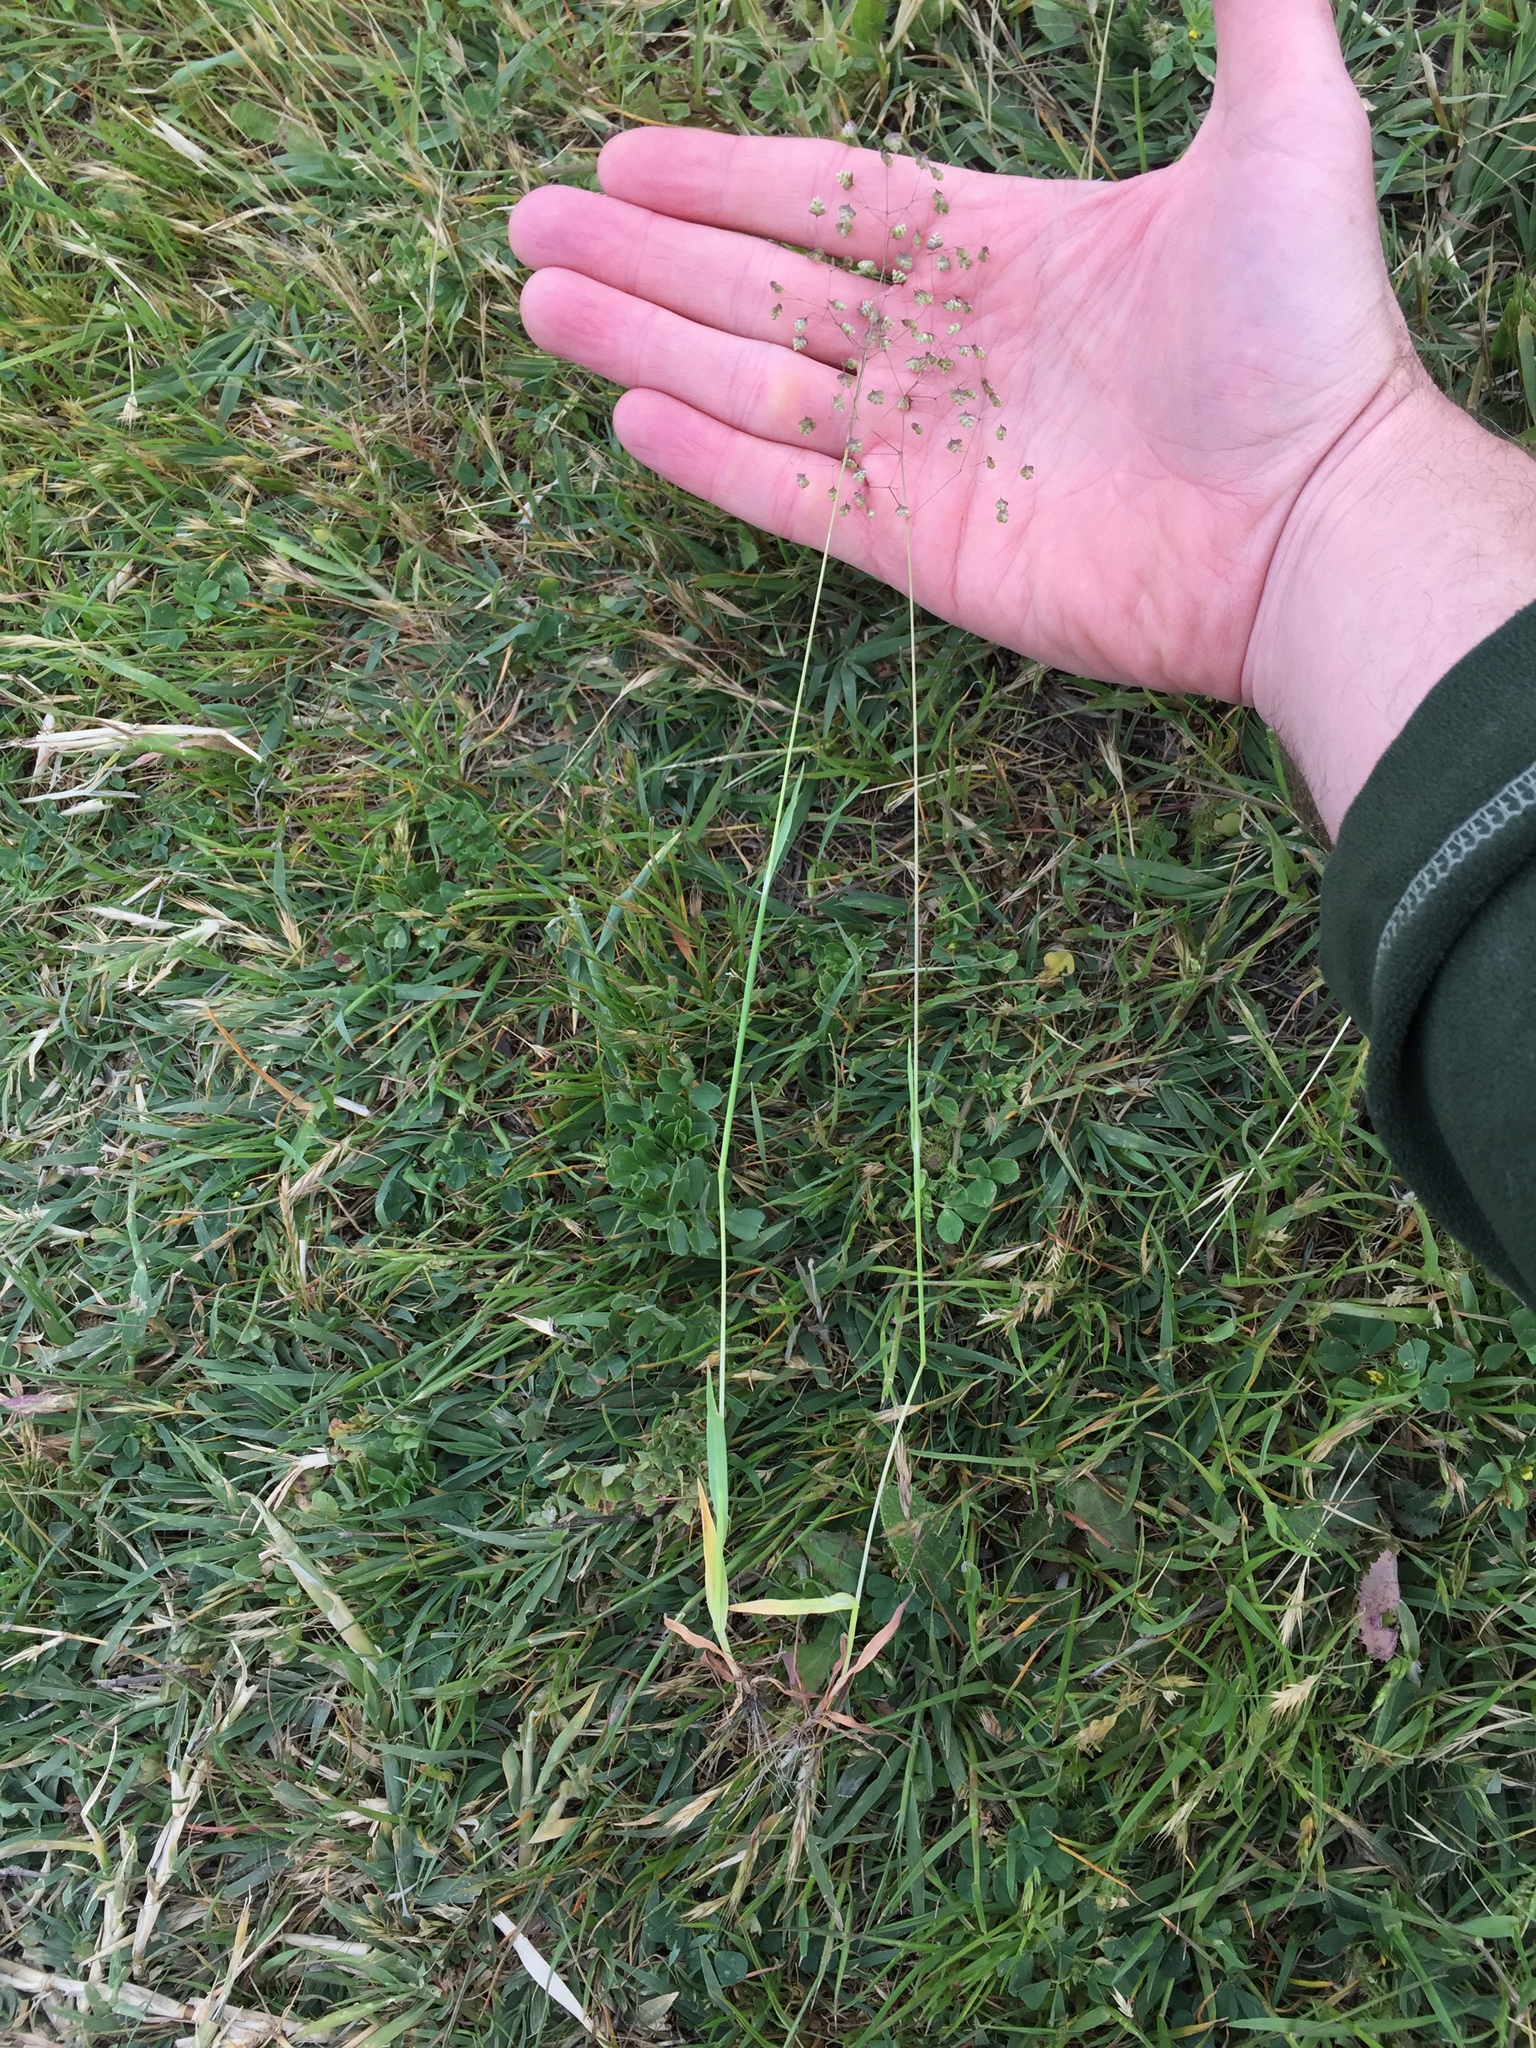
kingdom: Plantae
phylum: Tracheophyta
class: Liliopsida
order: Poales
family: Poaceae
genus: Briza
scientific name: Briza minor
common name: Lesser quaking-grass
